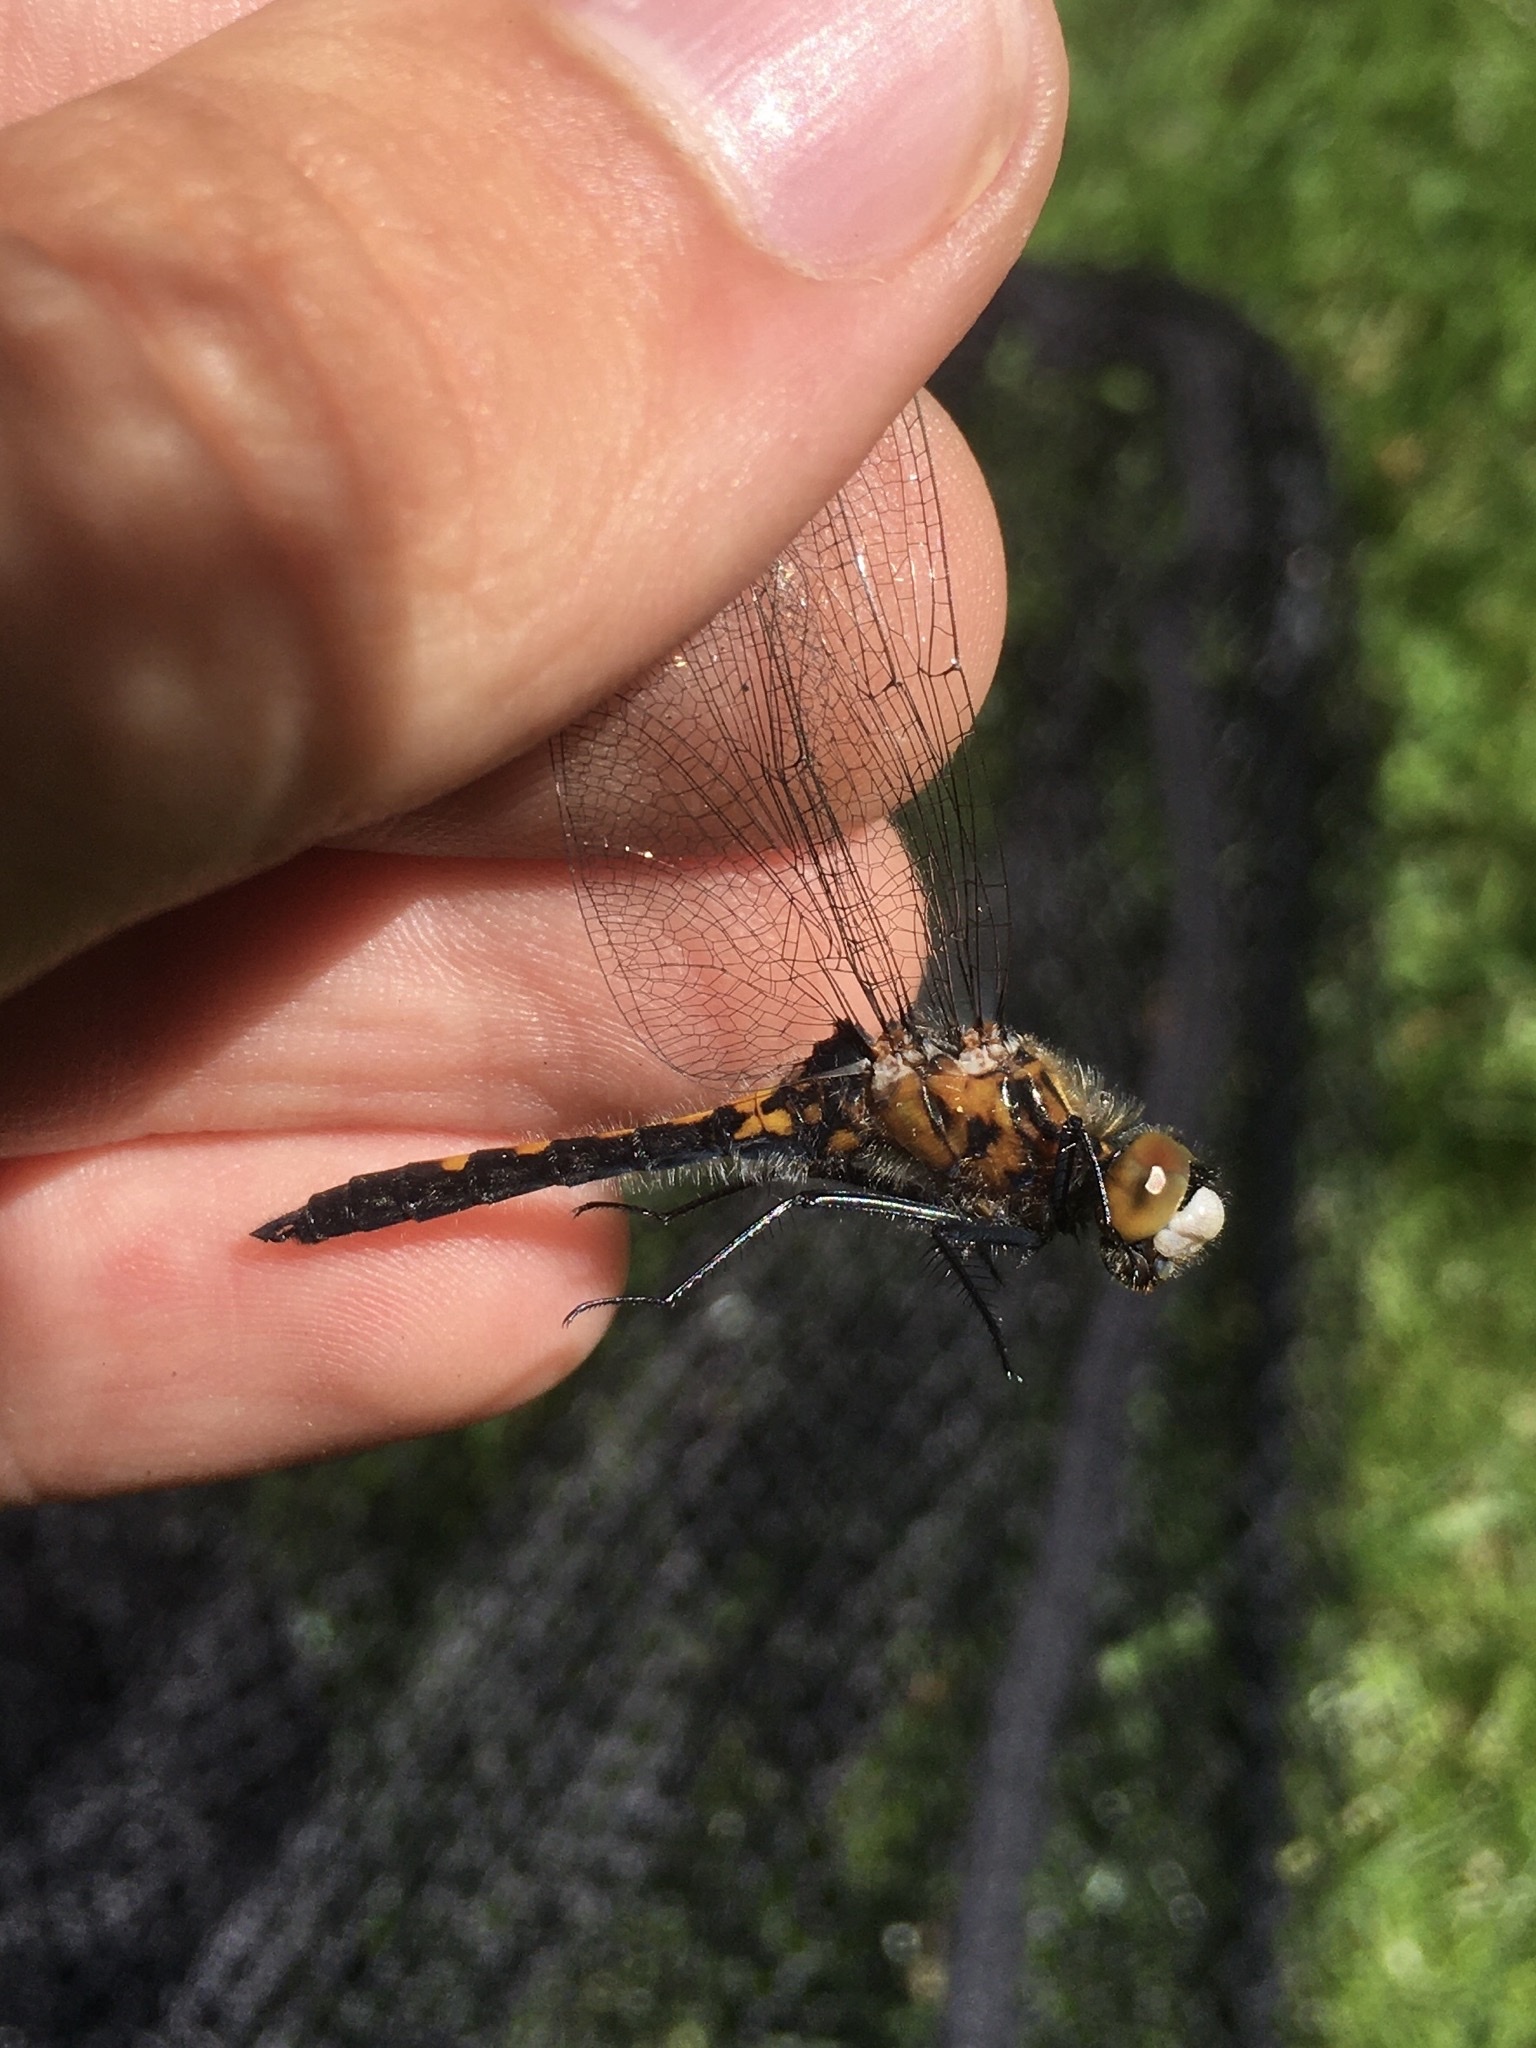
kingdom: Animalia
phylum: Arthropoda
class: Insecta
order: Odonata
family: Libellulidae
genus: Leucorrhinia
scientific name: Leucorrhinia intacta
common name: Dot-tailed whiteface
